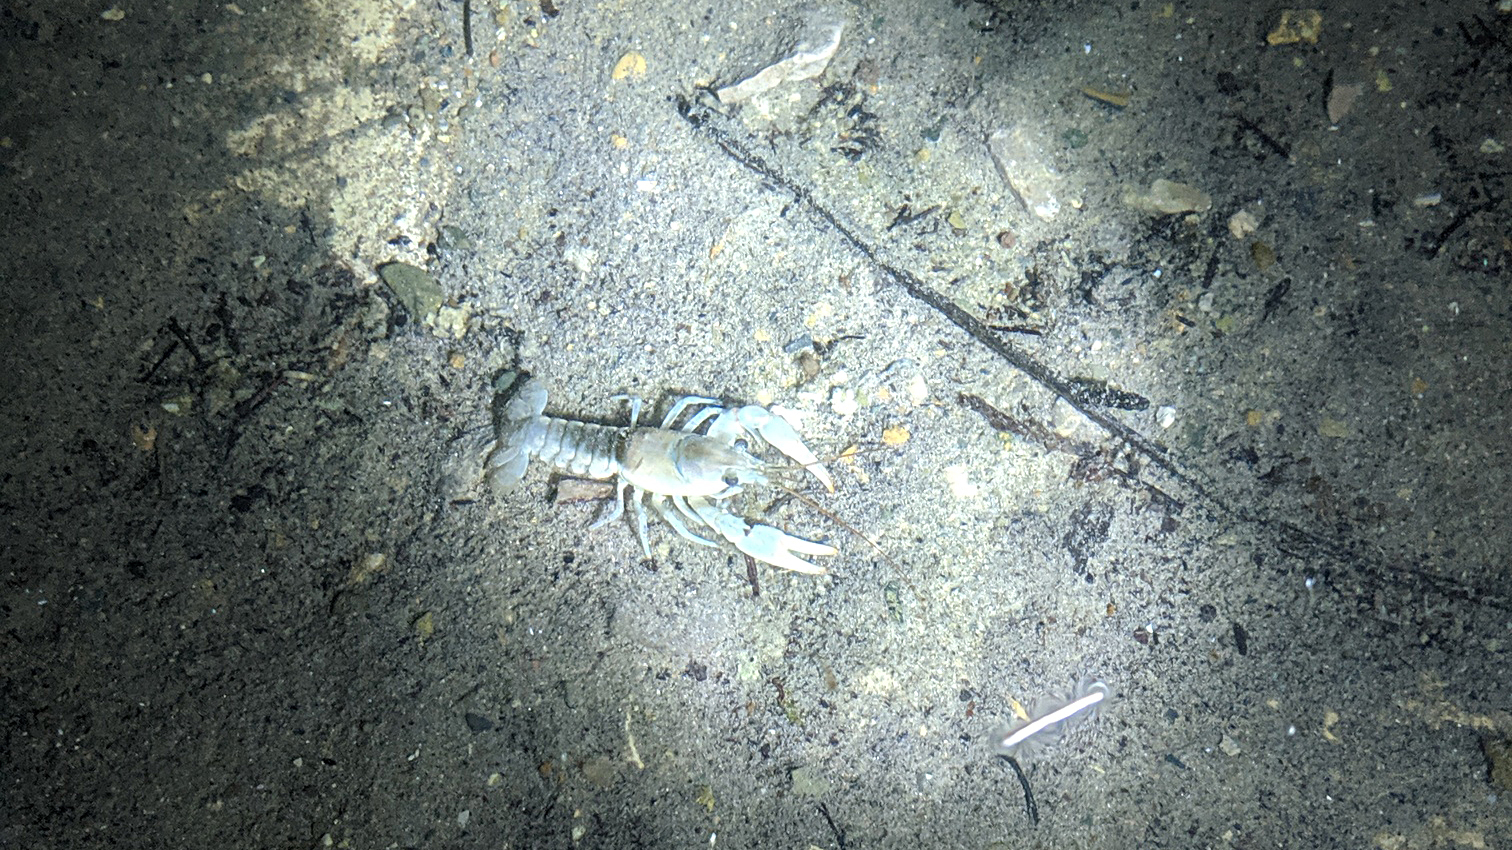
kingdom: Animalia
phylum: Arthropoda
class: Malacostraca
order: Decapoda
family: Cambaridae
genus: Faxonius
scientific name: Faxonius propinquus
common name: Northern clearwater crayfish
